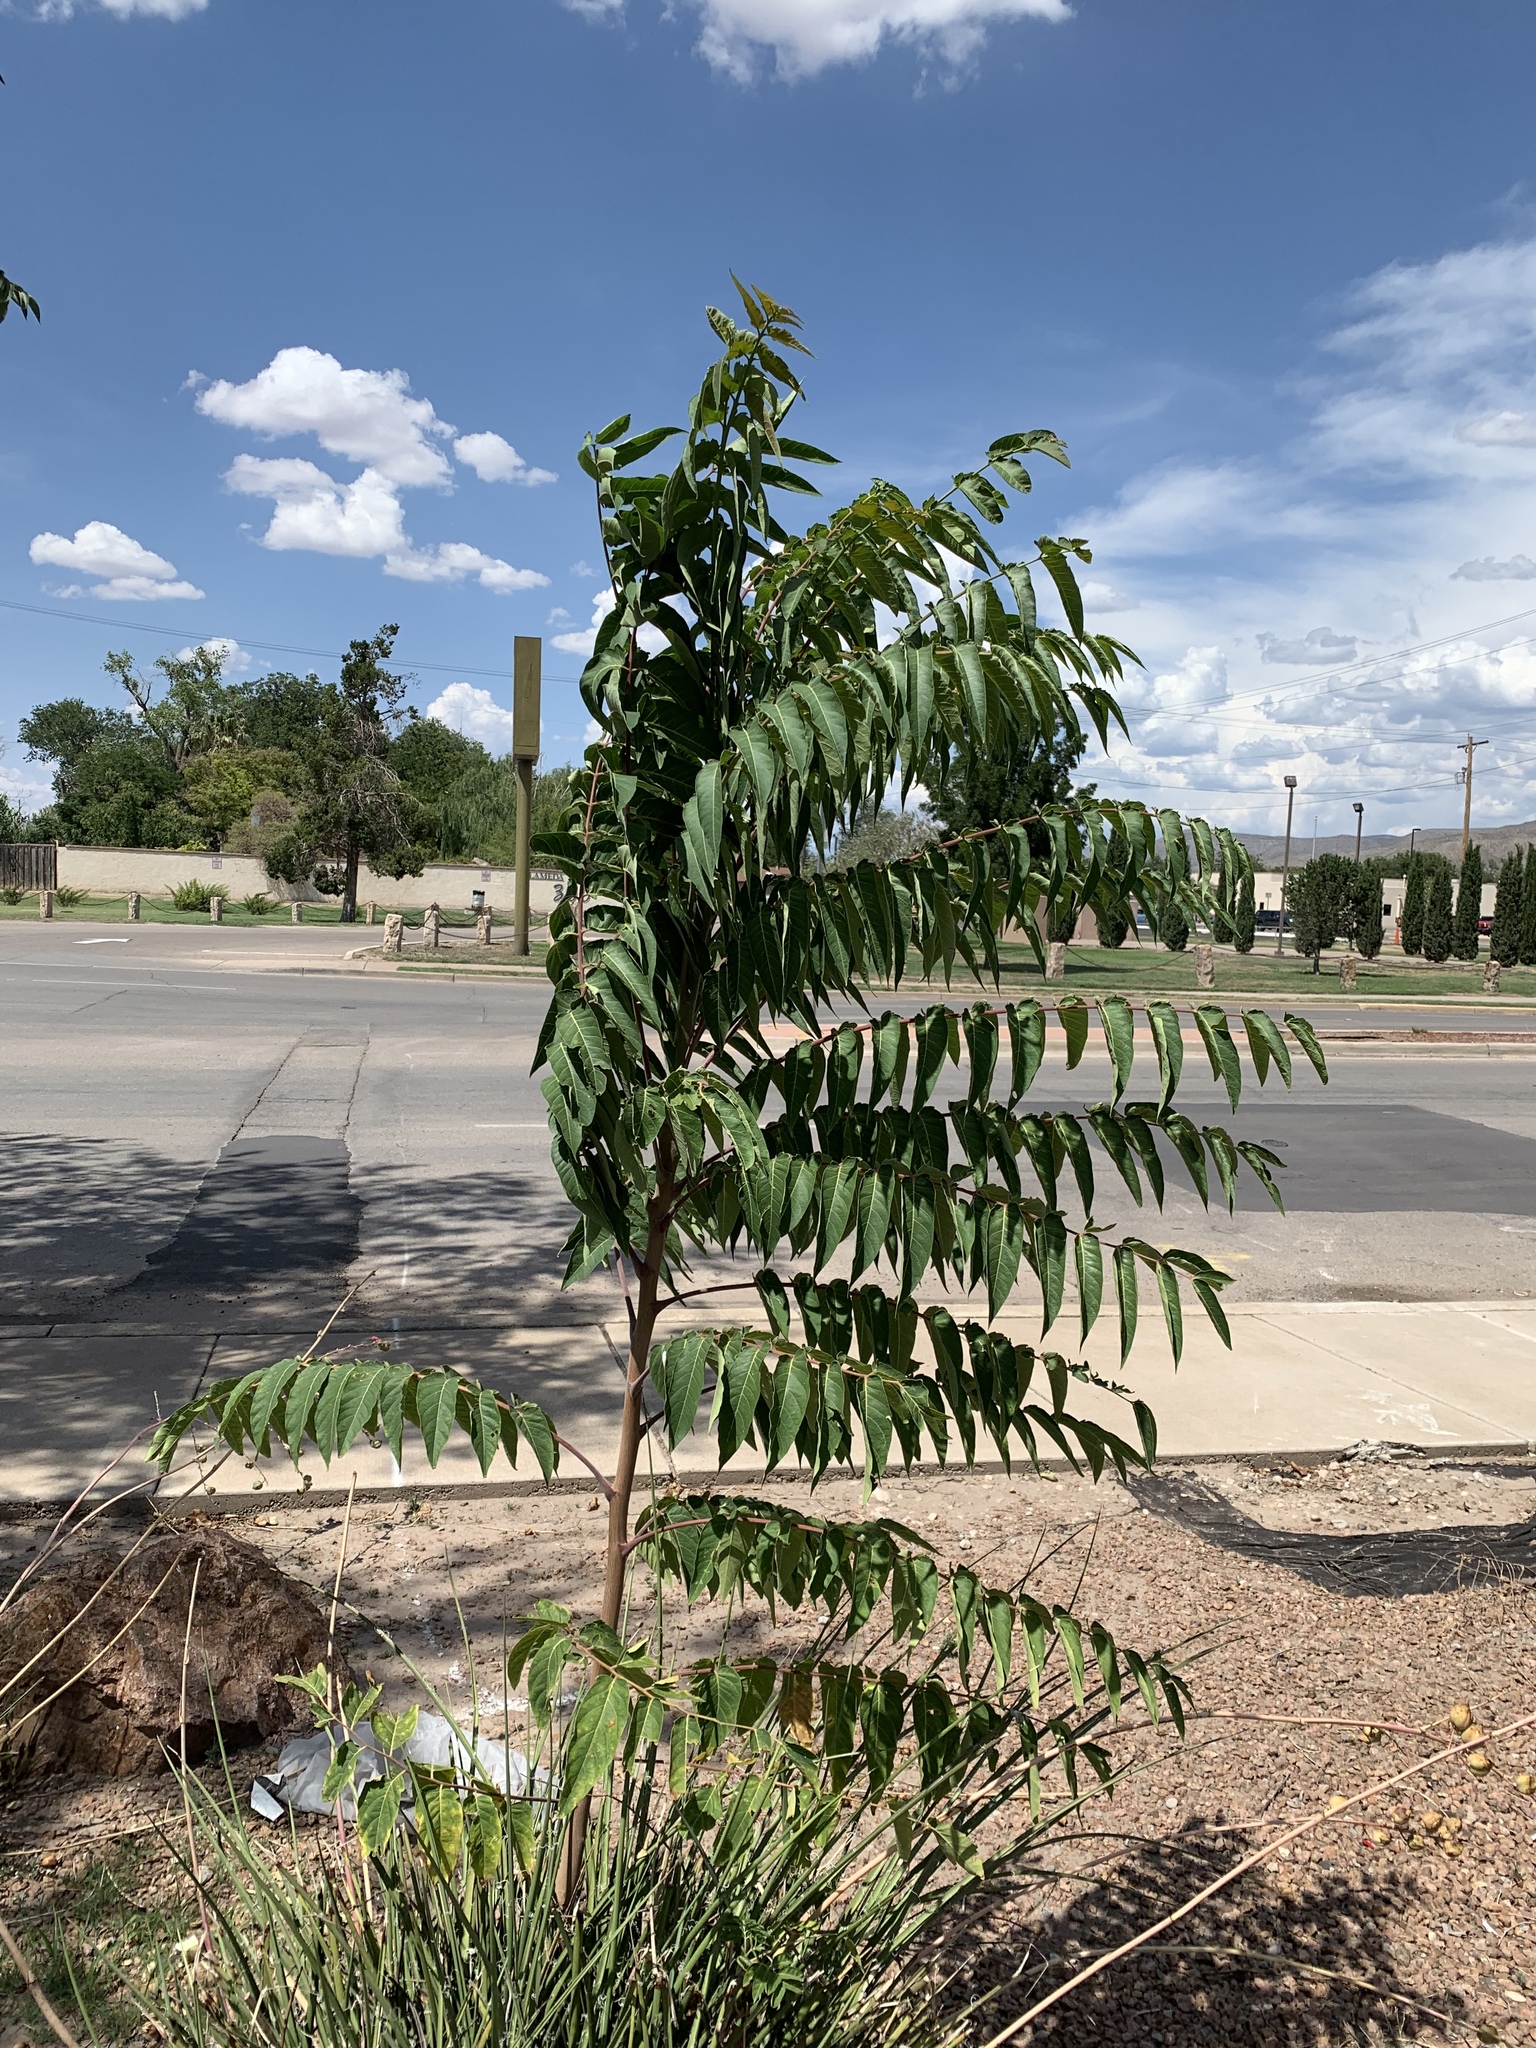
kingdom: Plantae
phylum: Tracheophyta
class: Magnoliopsida
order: Sapindales
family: Simaroubaceae
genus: Ailanthus
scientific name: Ailanthus altissima
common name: Tree-of-heaven
